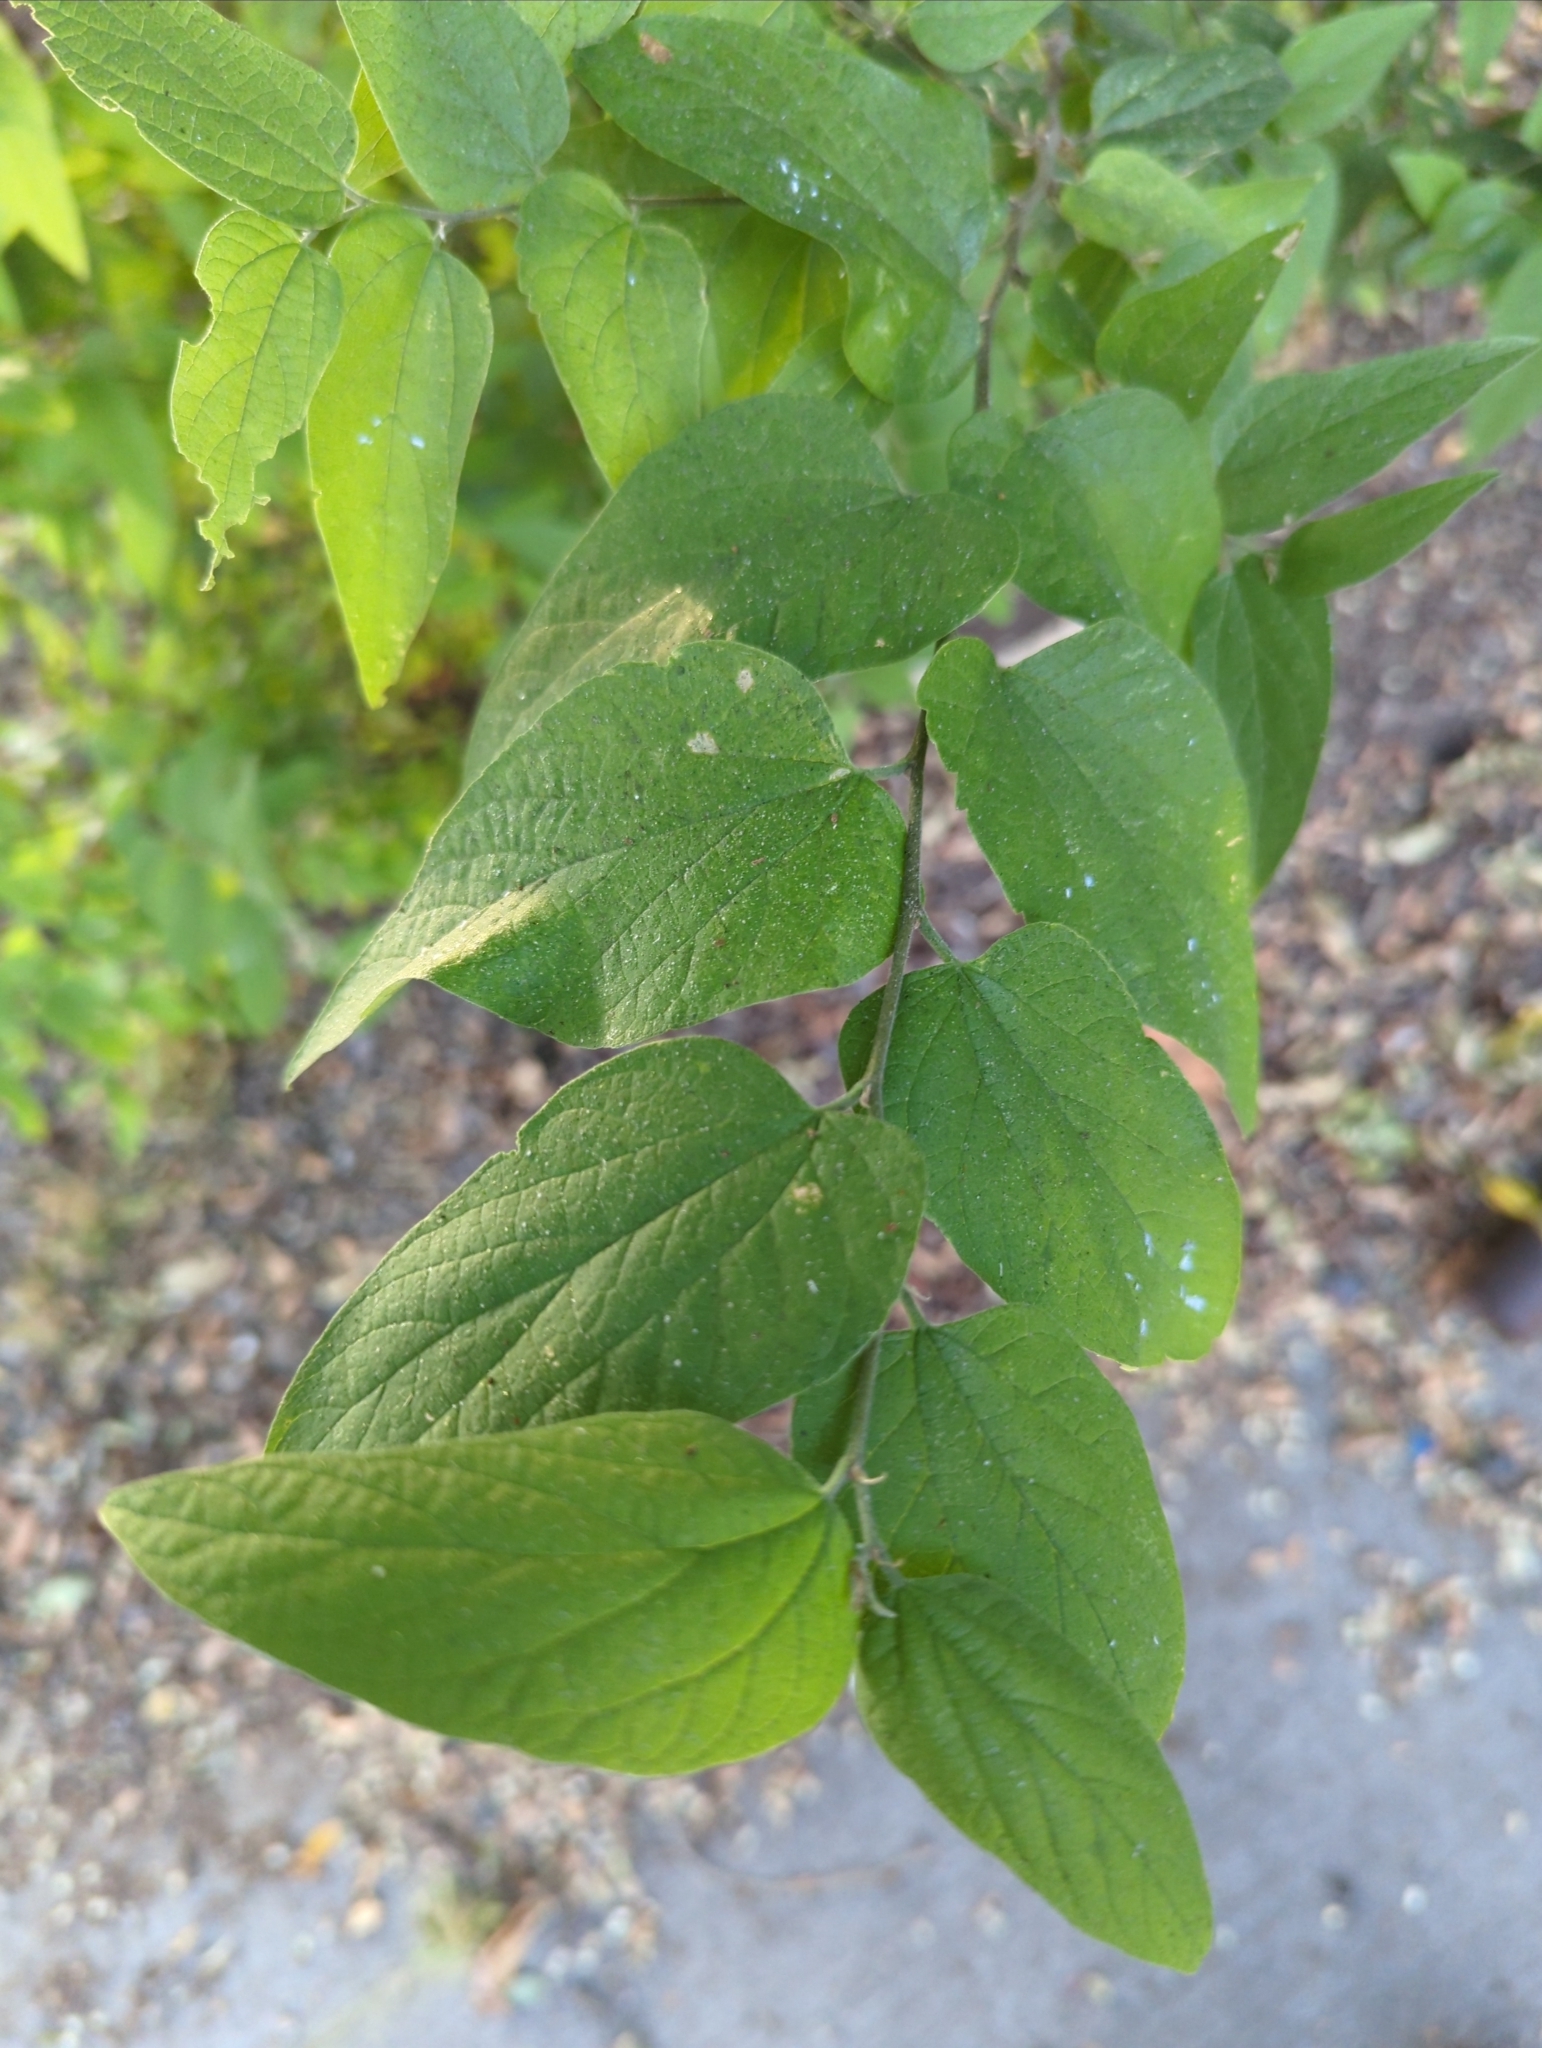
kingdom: Plantae
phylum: Tracheophyta
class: Magnoliopsida
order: Rosales
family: Cannabaceae
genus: Celtis
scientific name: Celtis reticulata
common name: Netleaf hackberry
